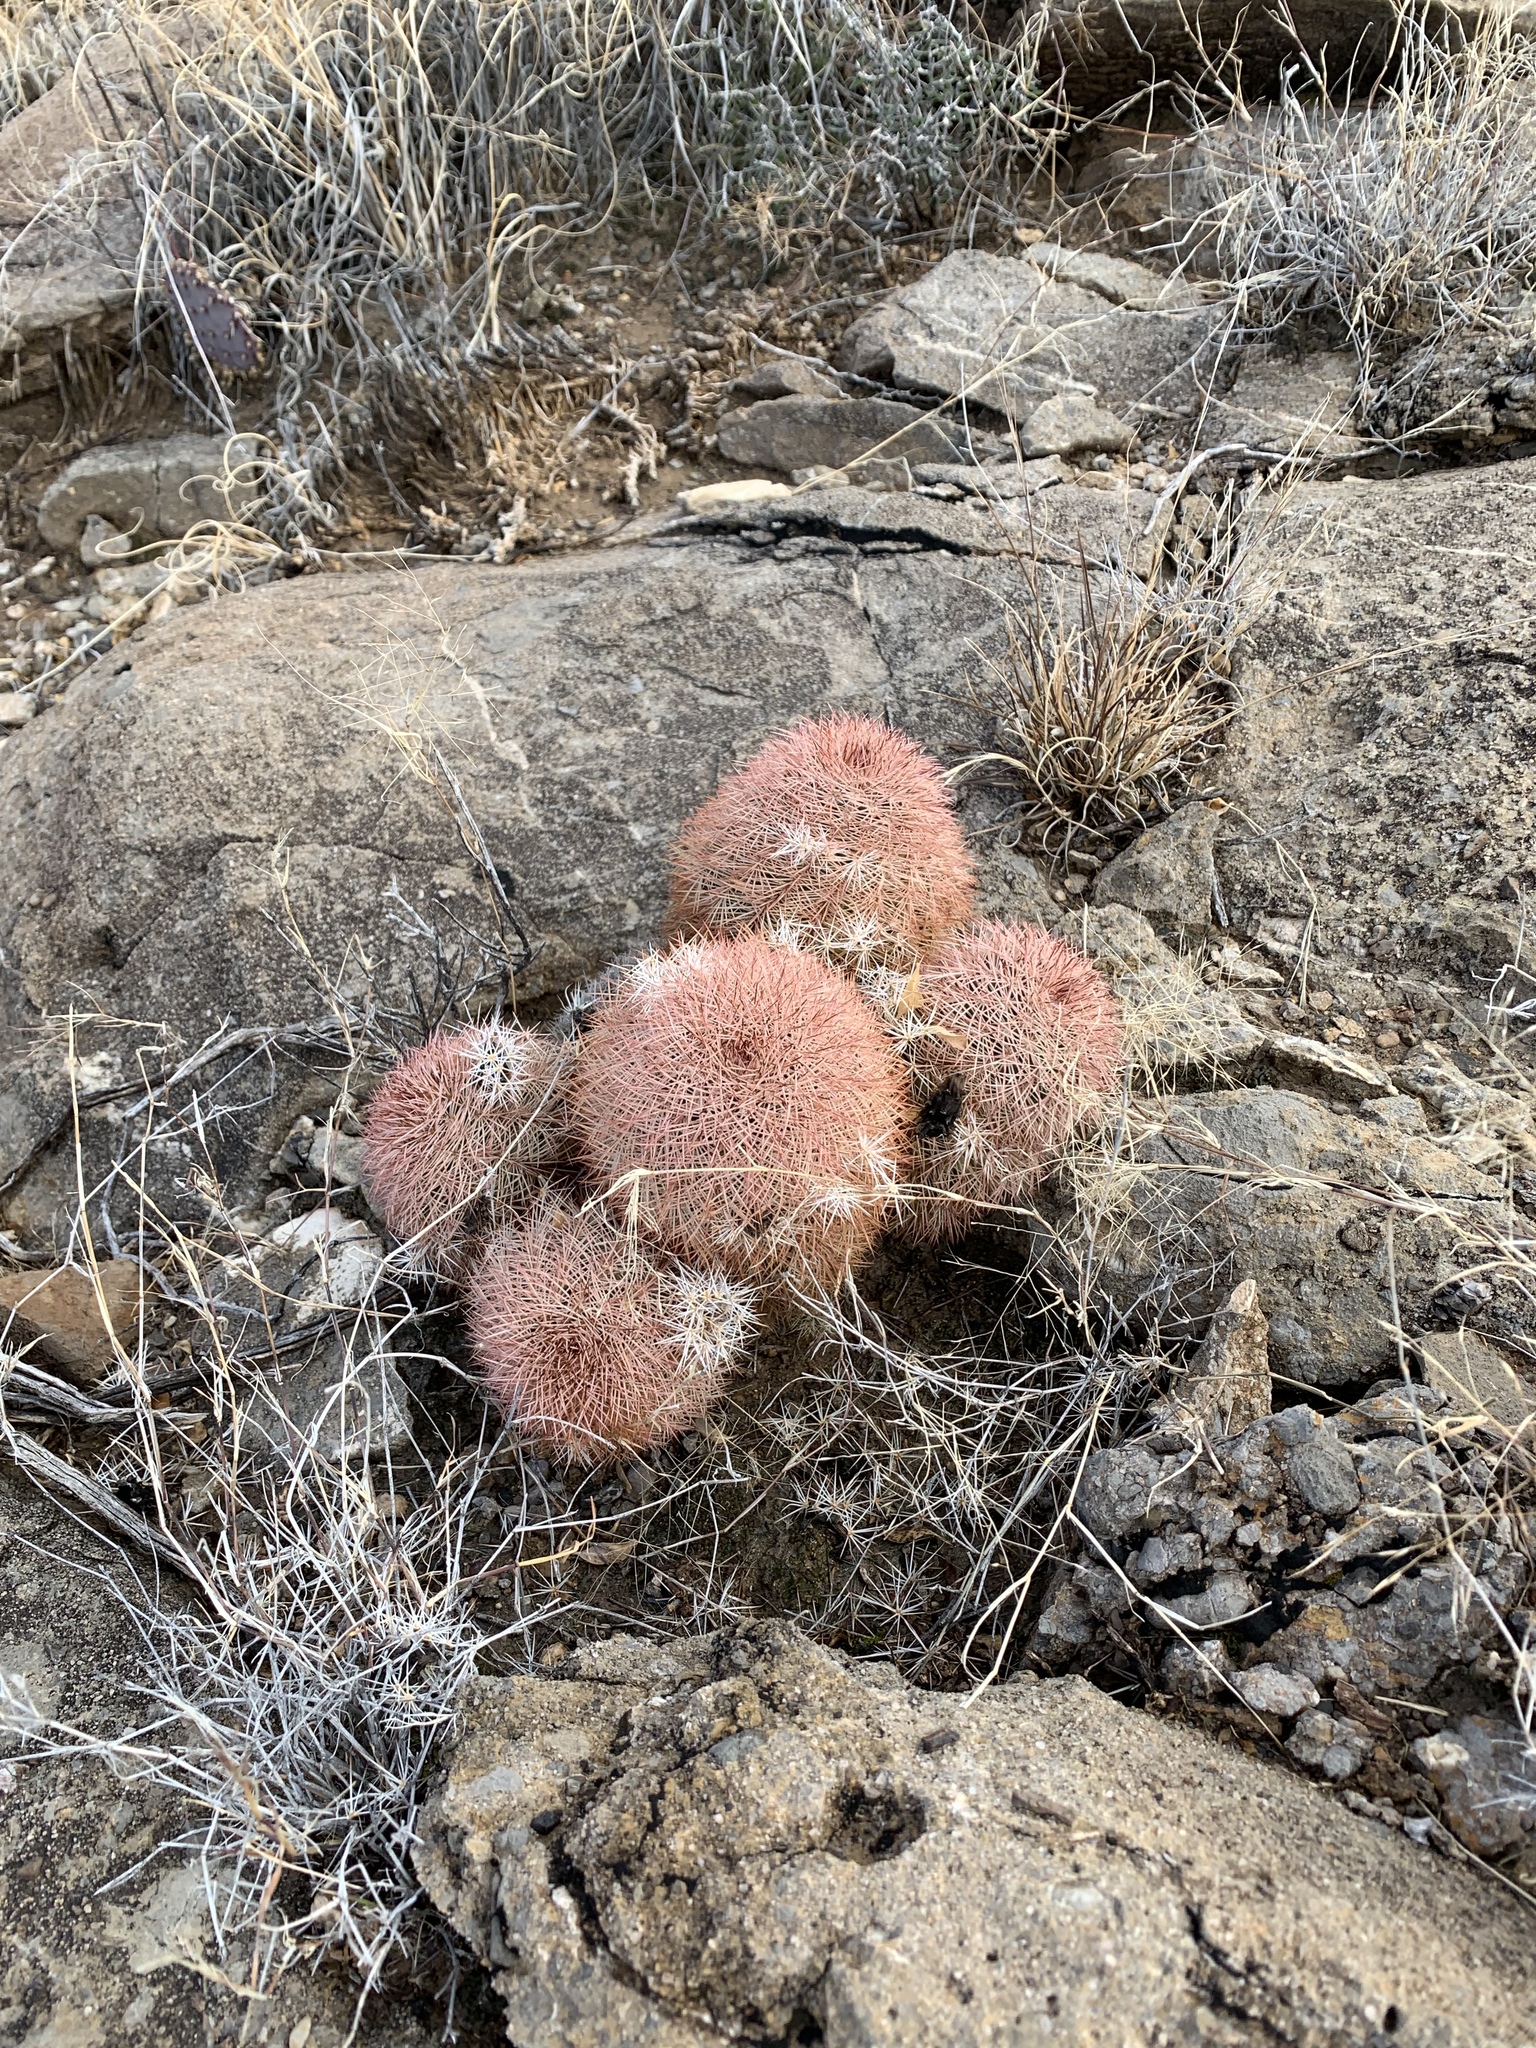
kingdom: Plantae
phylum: Tracheophyta
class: Magnoliopsida
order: Caryophyllales
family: Cactaceae
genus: Echinocereus
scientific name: Echinocereus dasyacanthus
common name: Spiny hedgehog cactus
